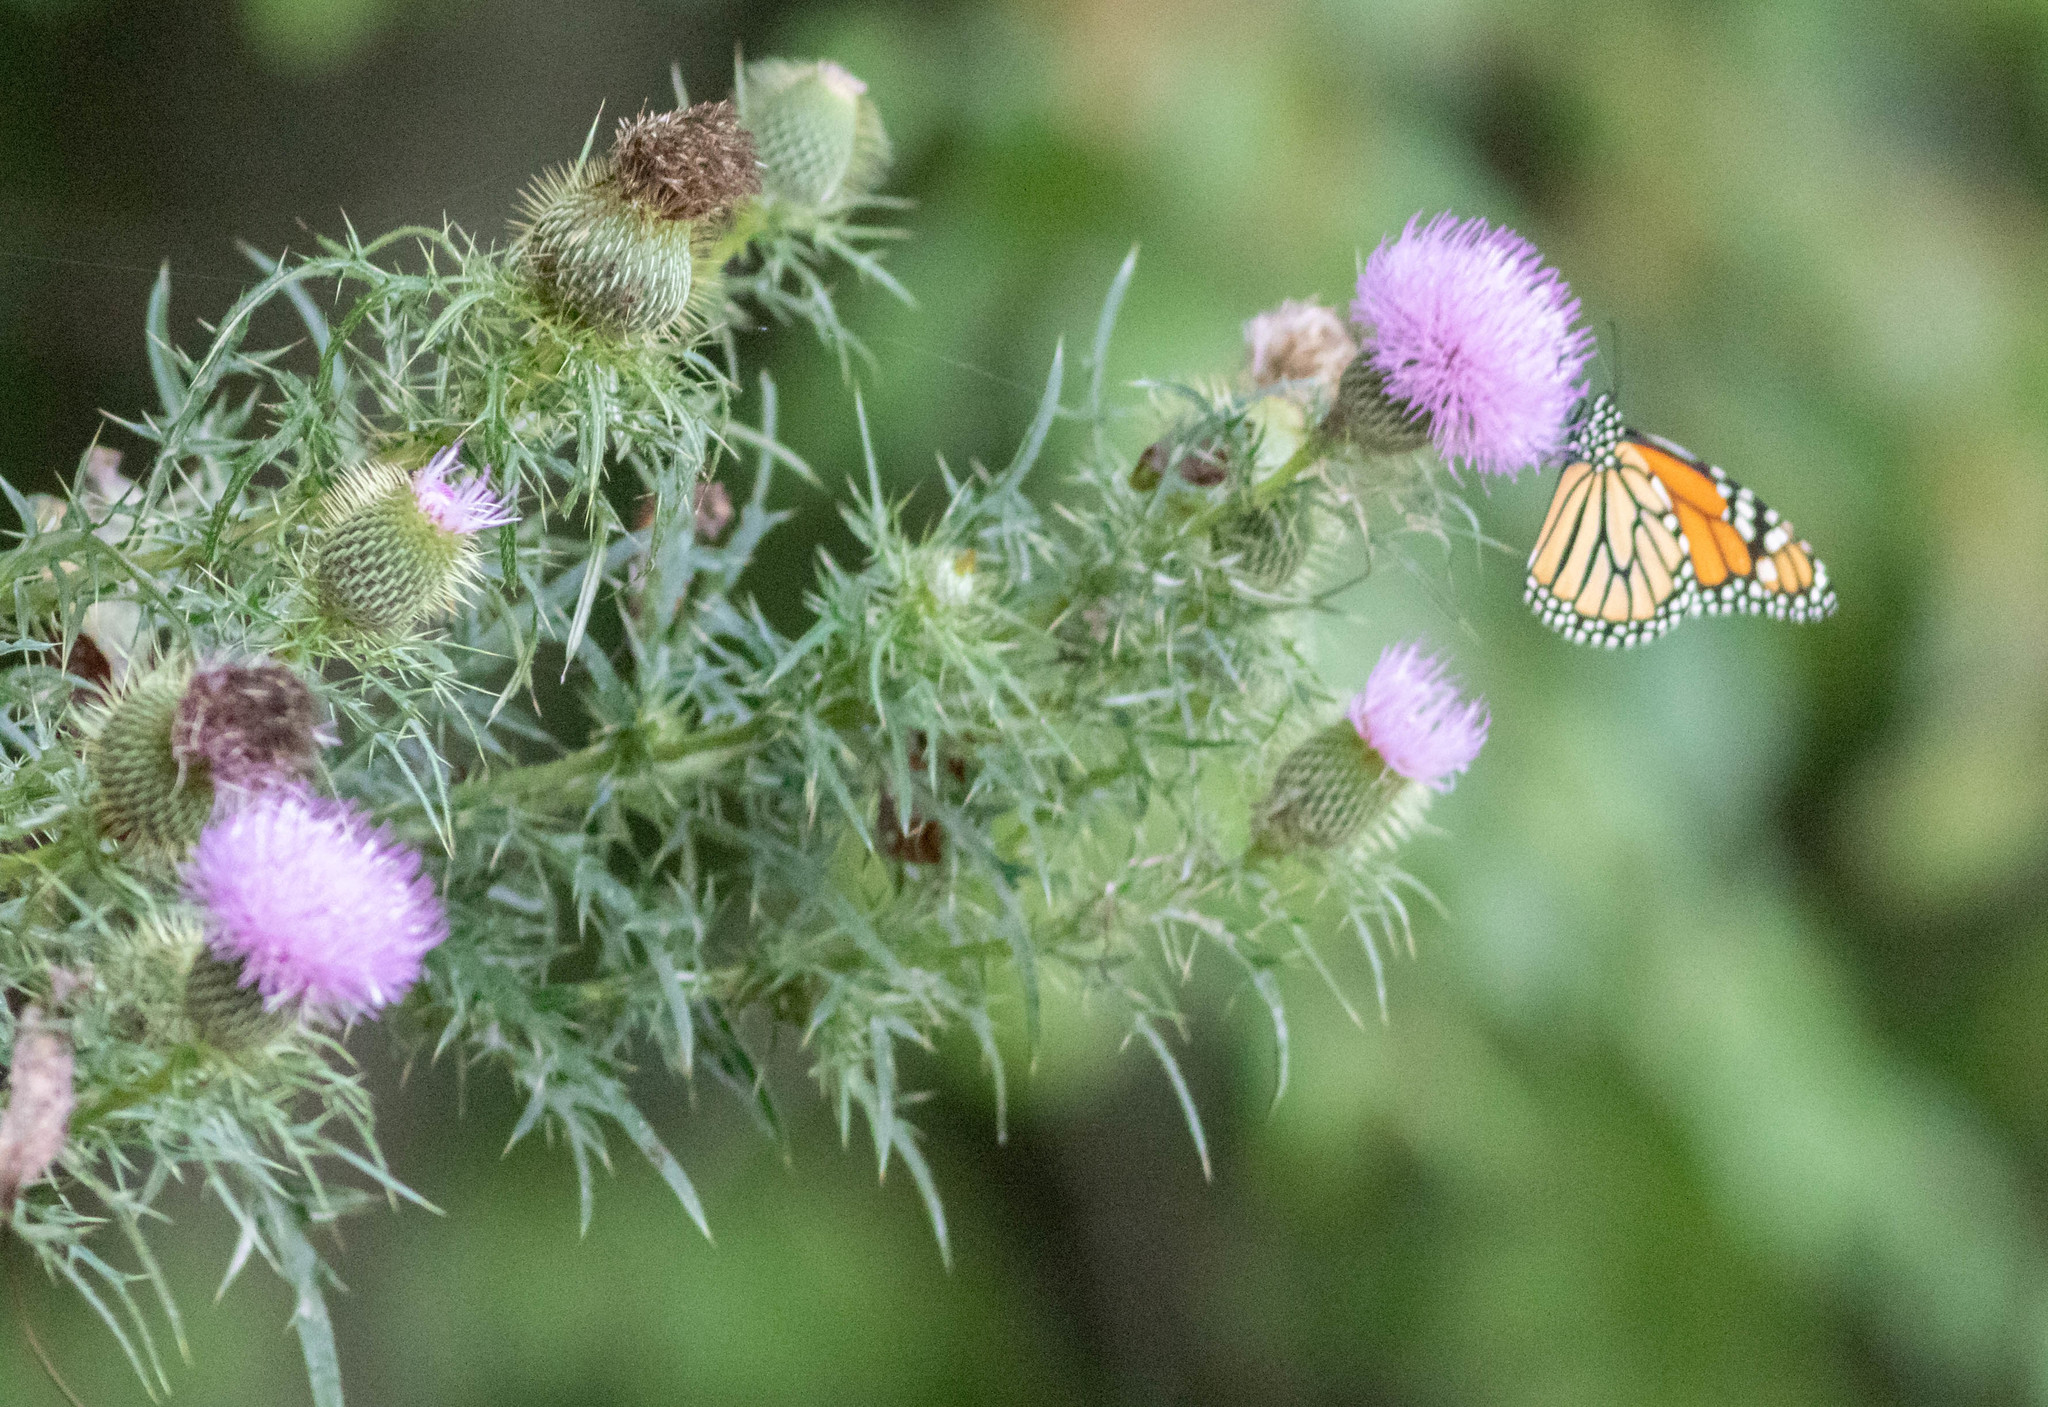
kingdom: Animalia
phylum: Arthropoda
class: Insecta
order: Lepidoptera
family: Nymphalidae
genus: Danaus
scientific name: Danaus plexippus
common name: Monarch
